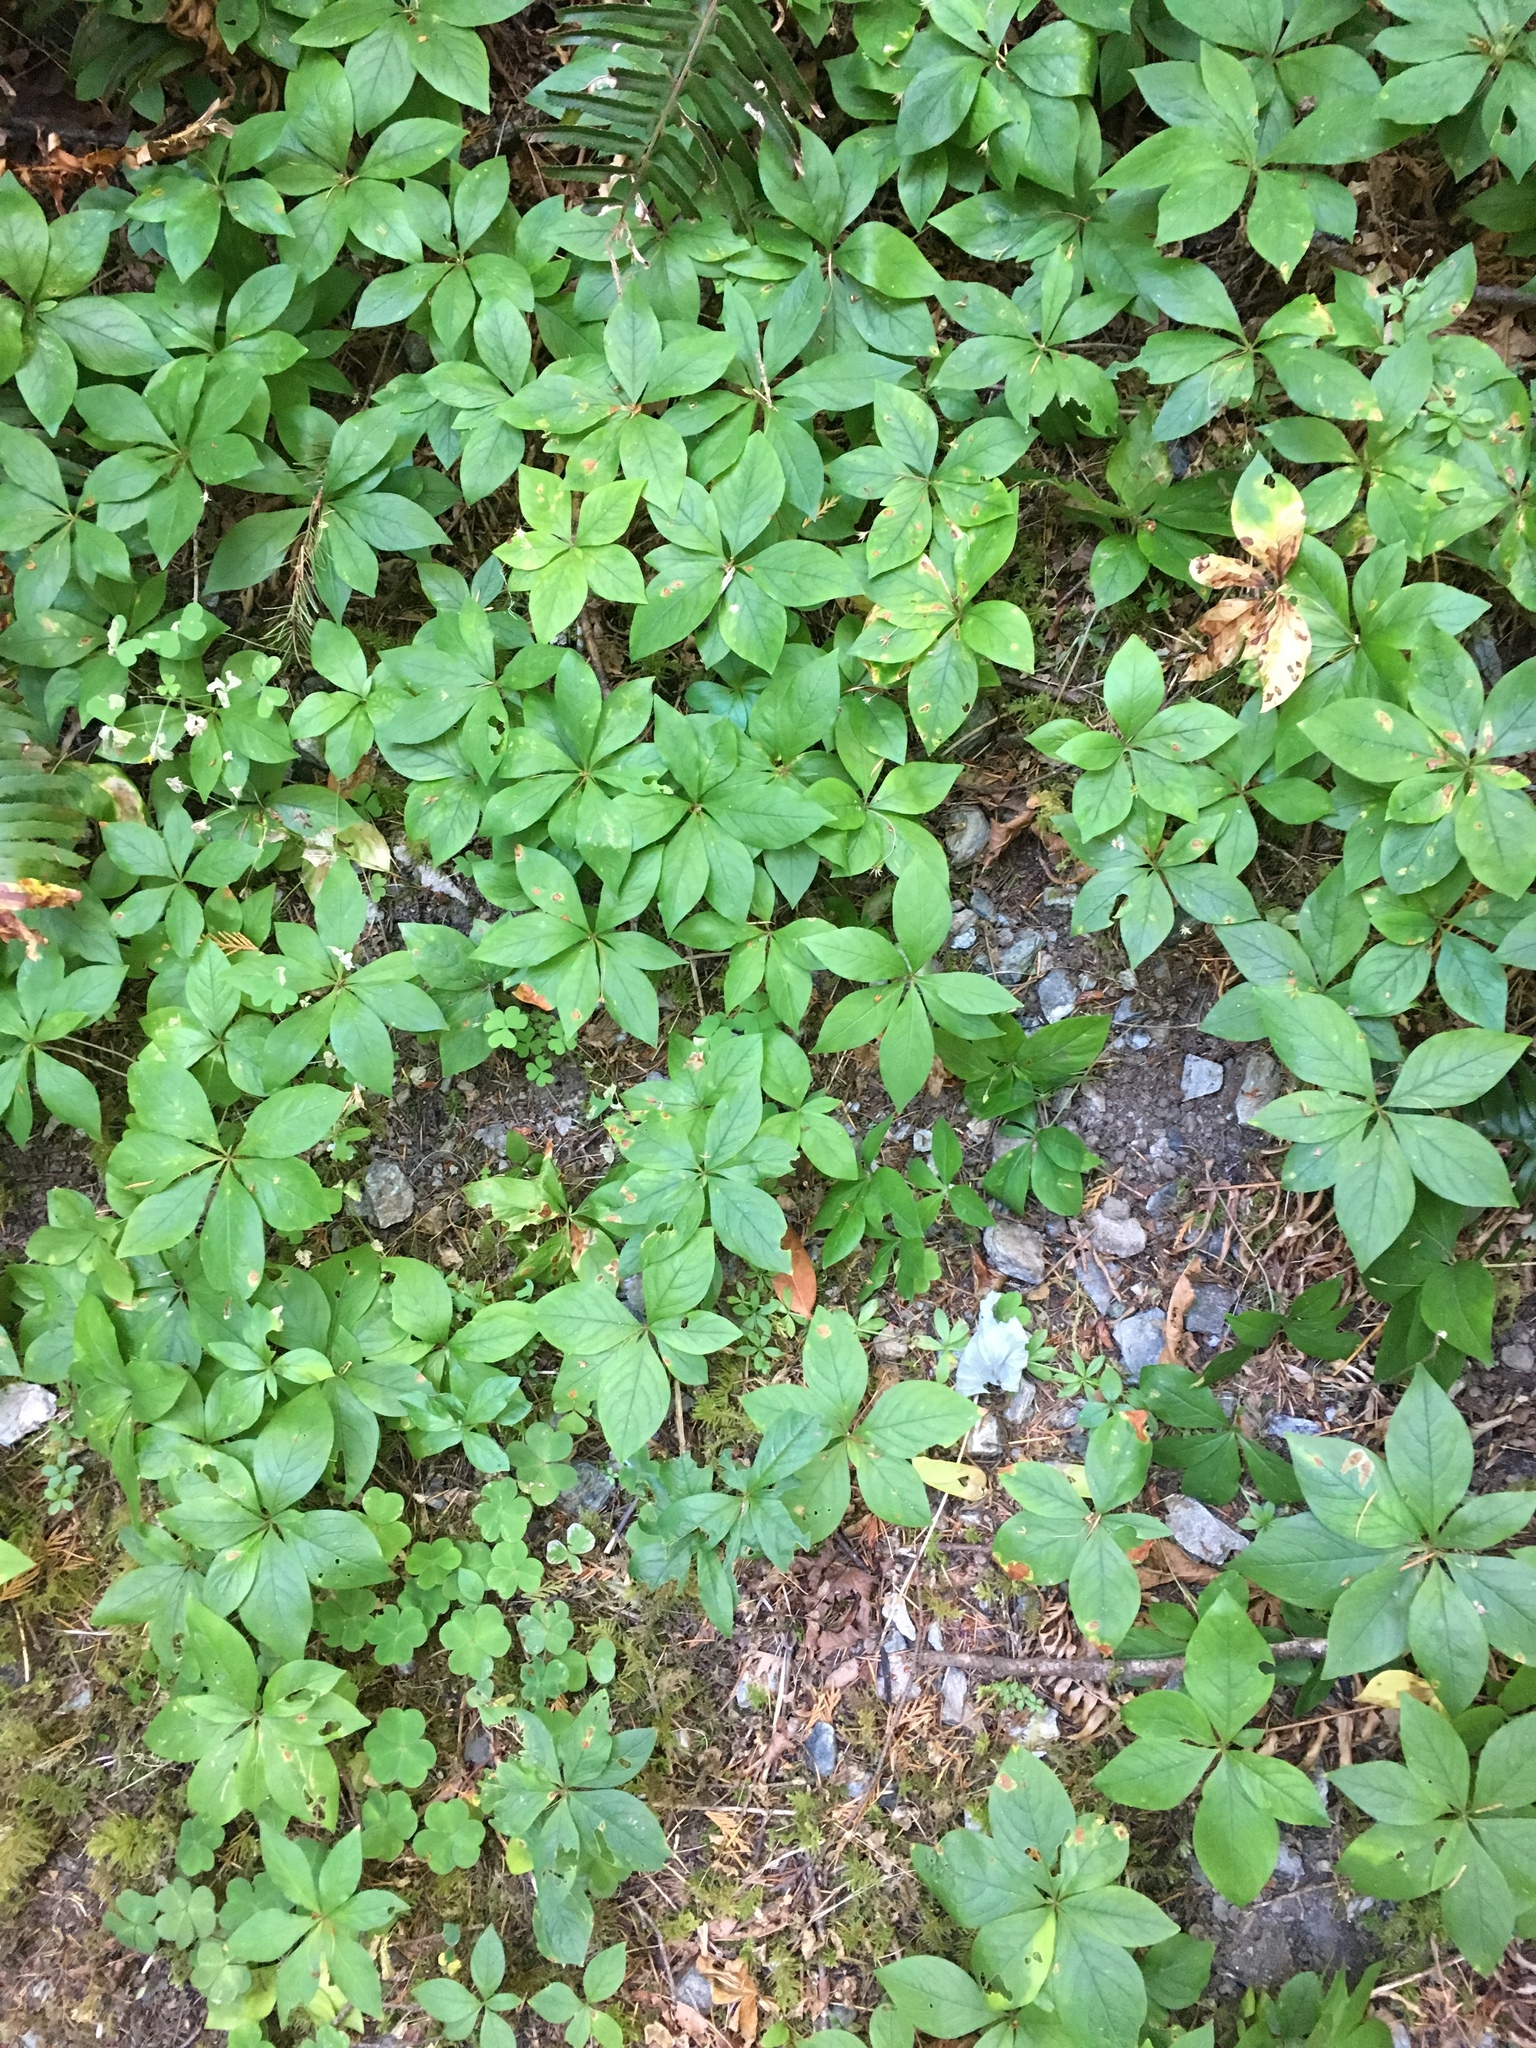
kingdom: Plantae
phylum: Tracheophyta
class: Magnoliopsida
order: Ericales
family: Primulaceae
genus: Lysimachia
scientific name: Lysimachia latifolia
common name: Pacific starflower
